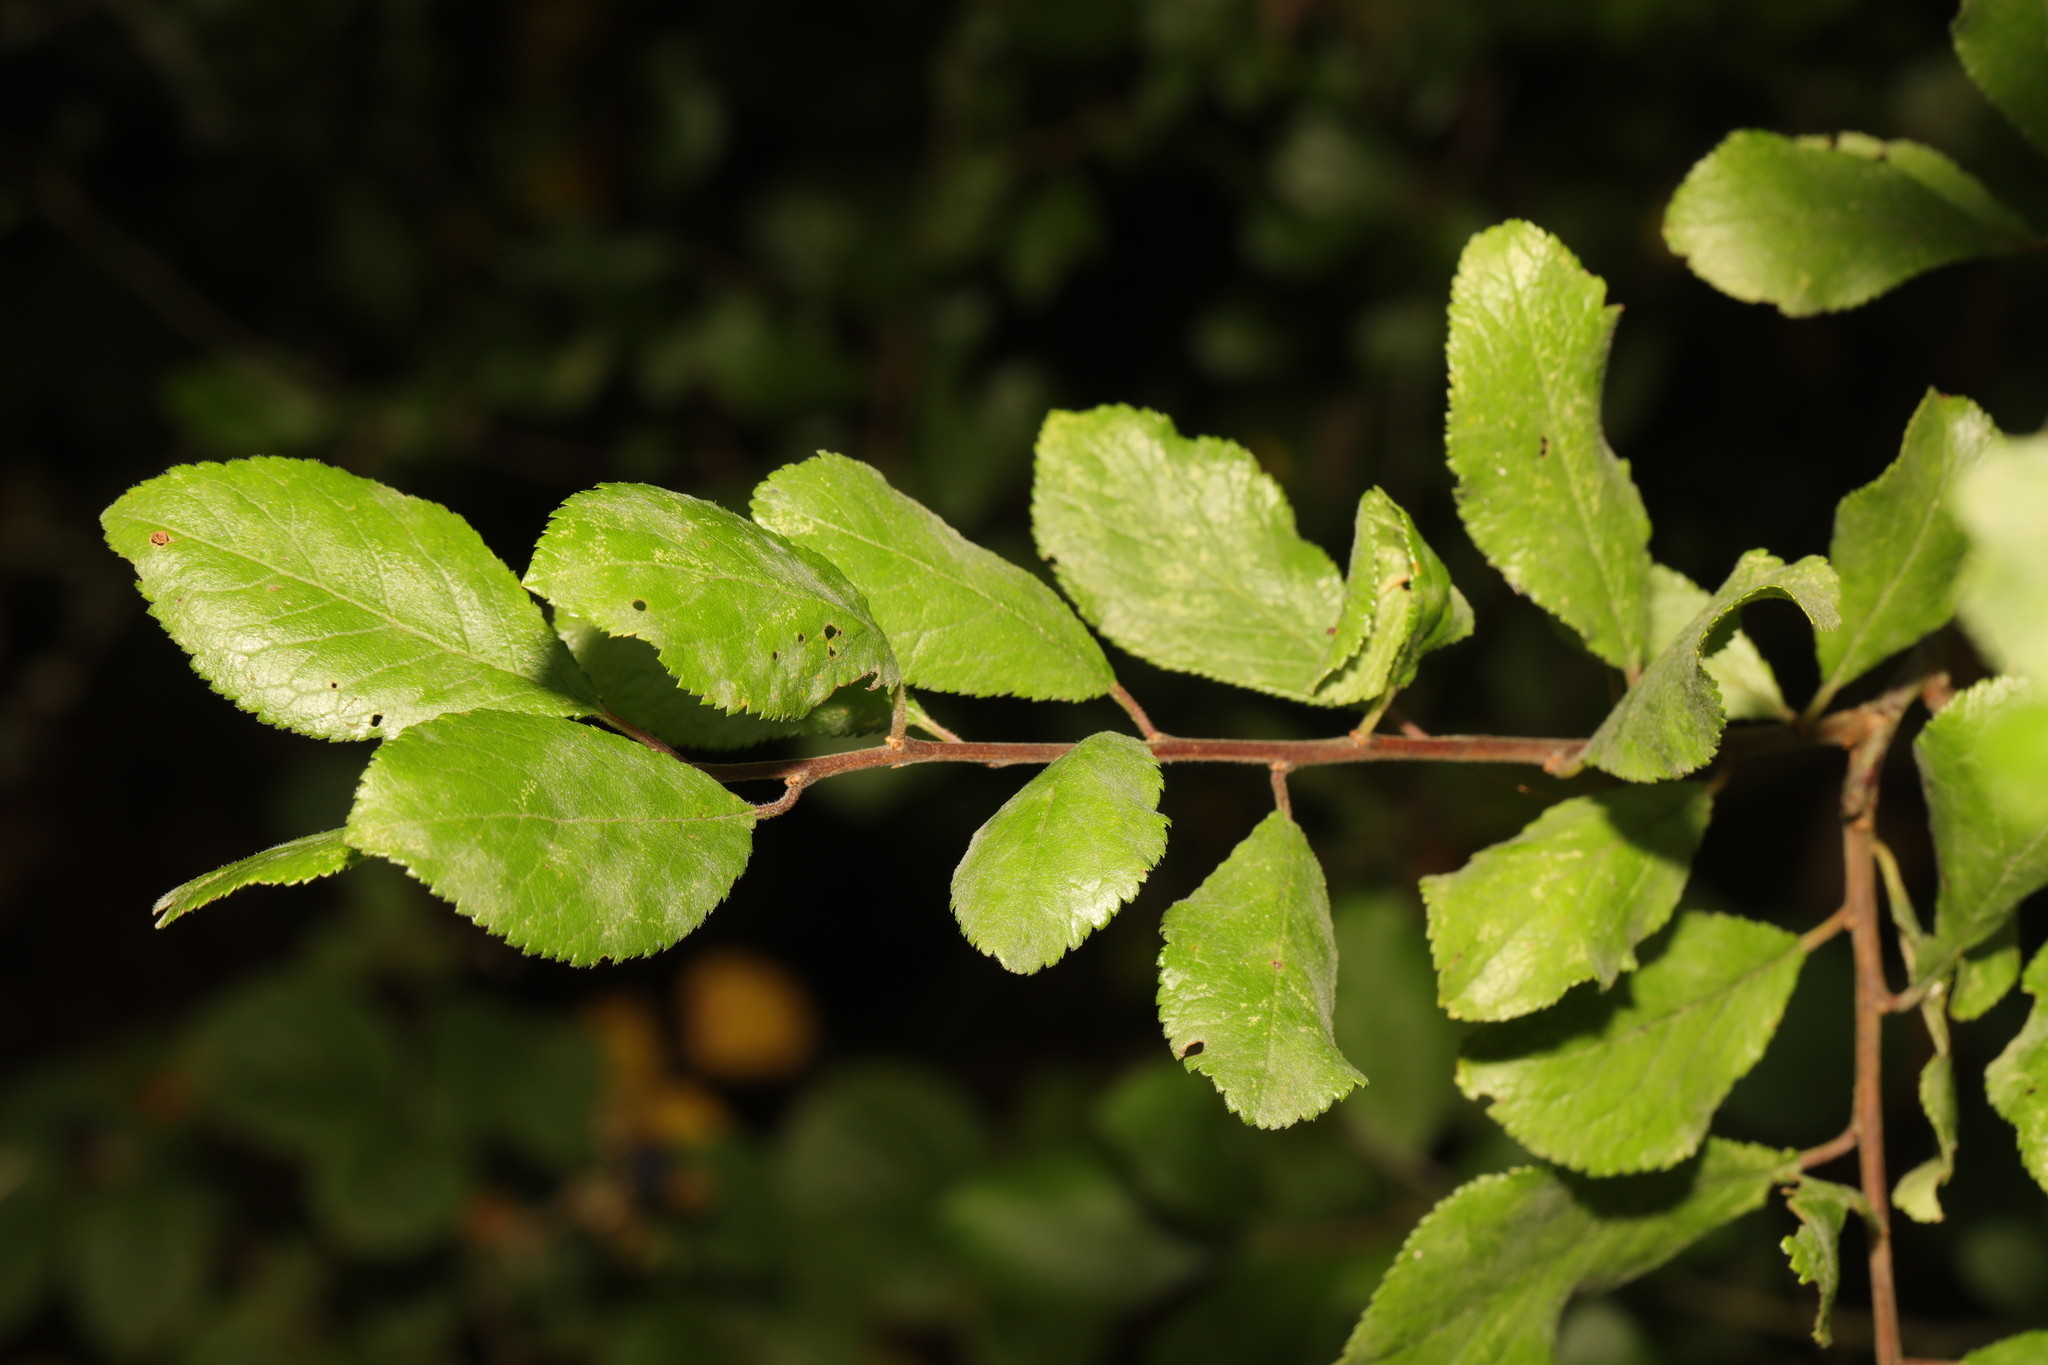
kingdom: Plantae
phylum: Tracheophyta
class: Magnoliopsida
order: Rosales
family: Rosaceae
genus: Prunus
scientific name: Prunus spinosa
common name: Blackthorn
